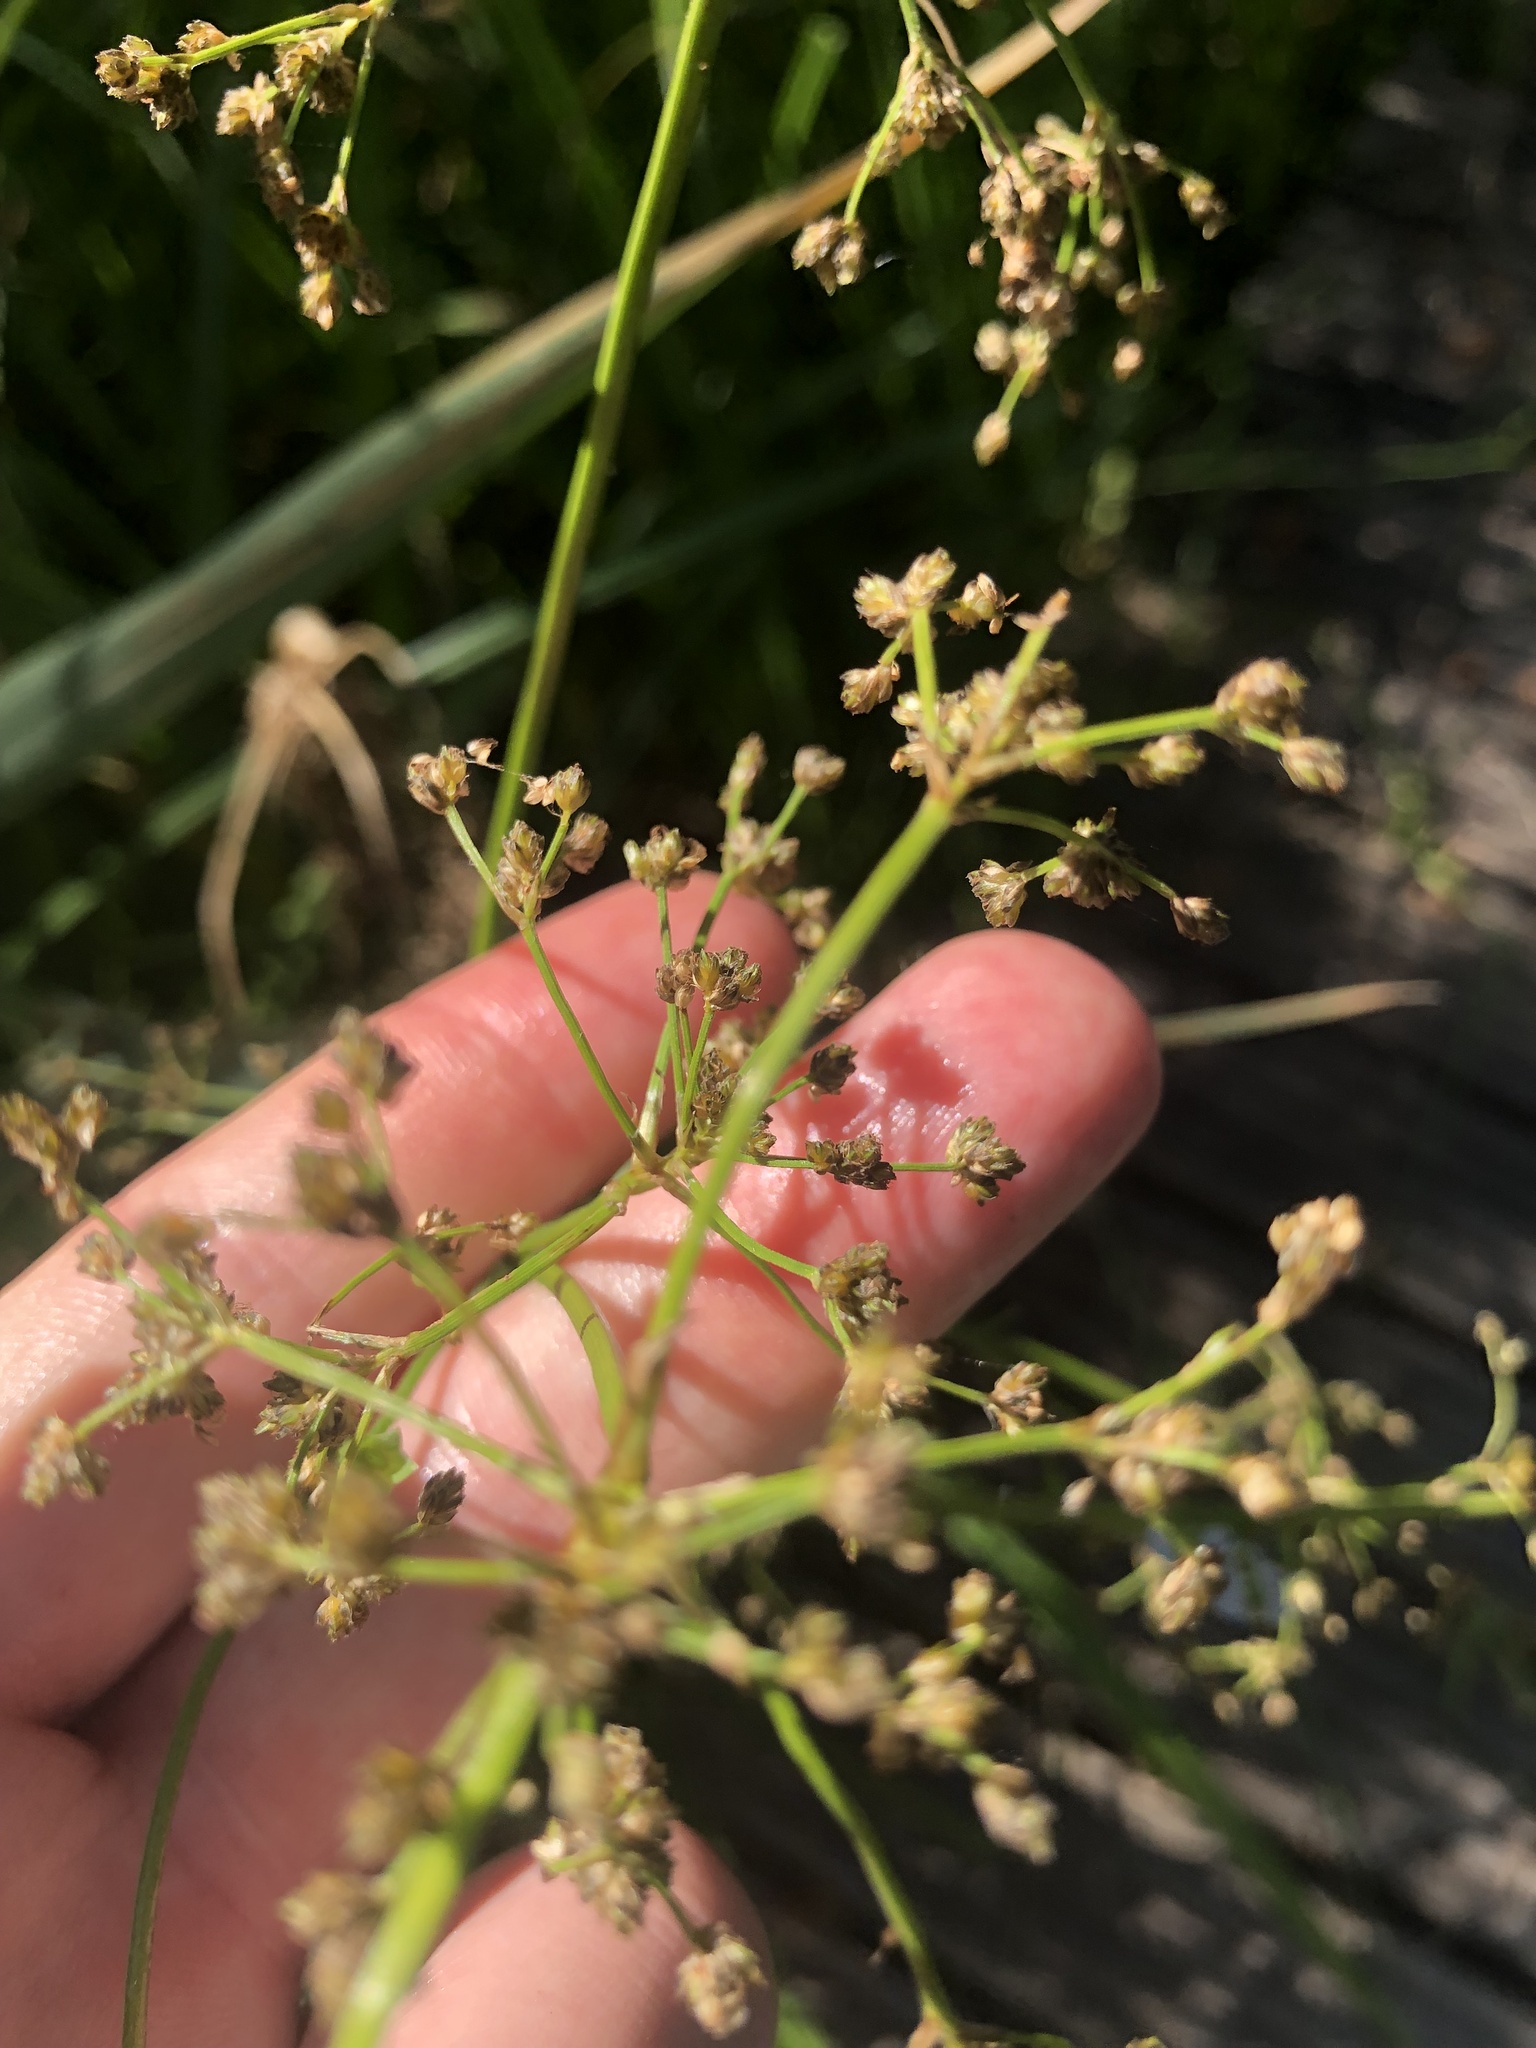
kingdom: Plantae
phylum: Tracheophyta
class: Liliopsida
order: Poales
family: Cyperaceae
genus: Scirpus
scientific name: Scirpus sylvaticus
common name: Wood club-rush
